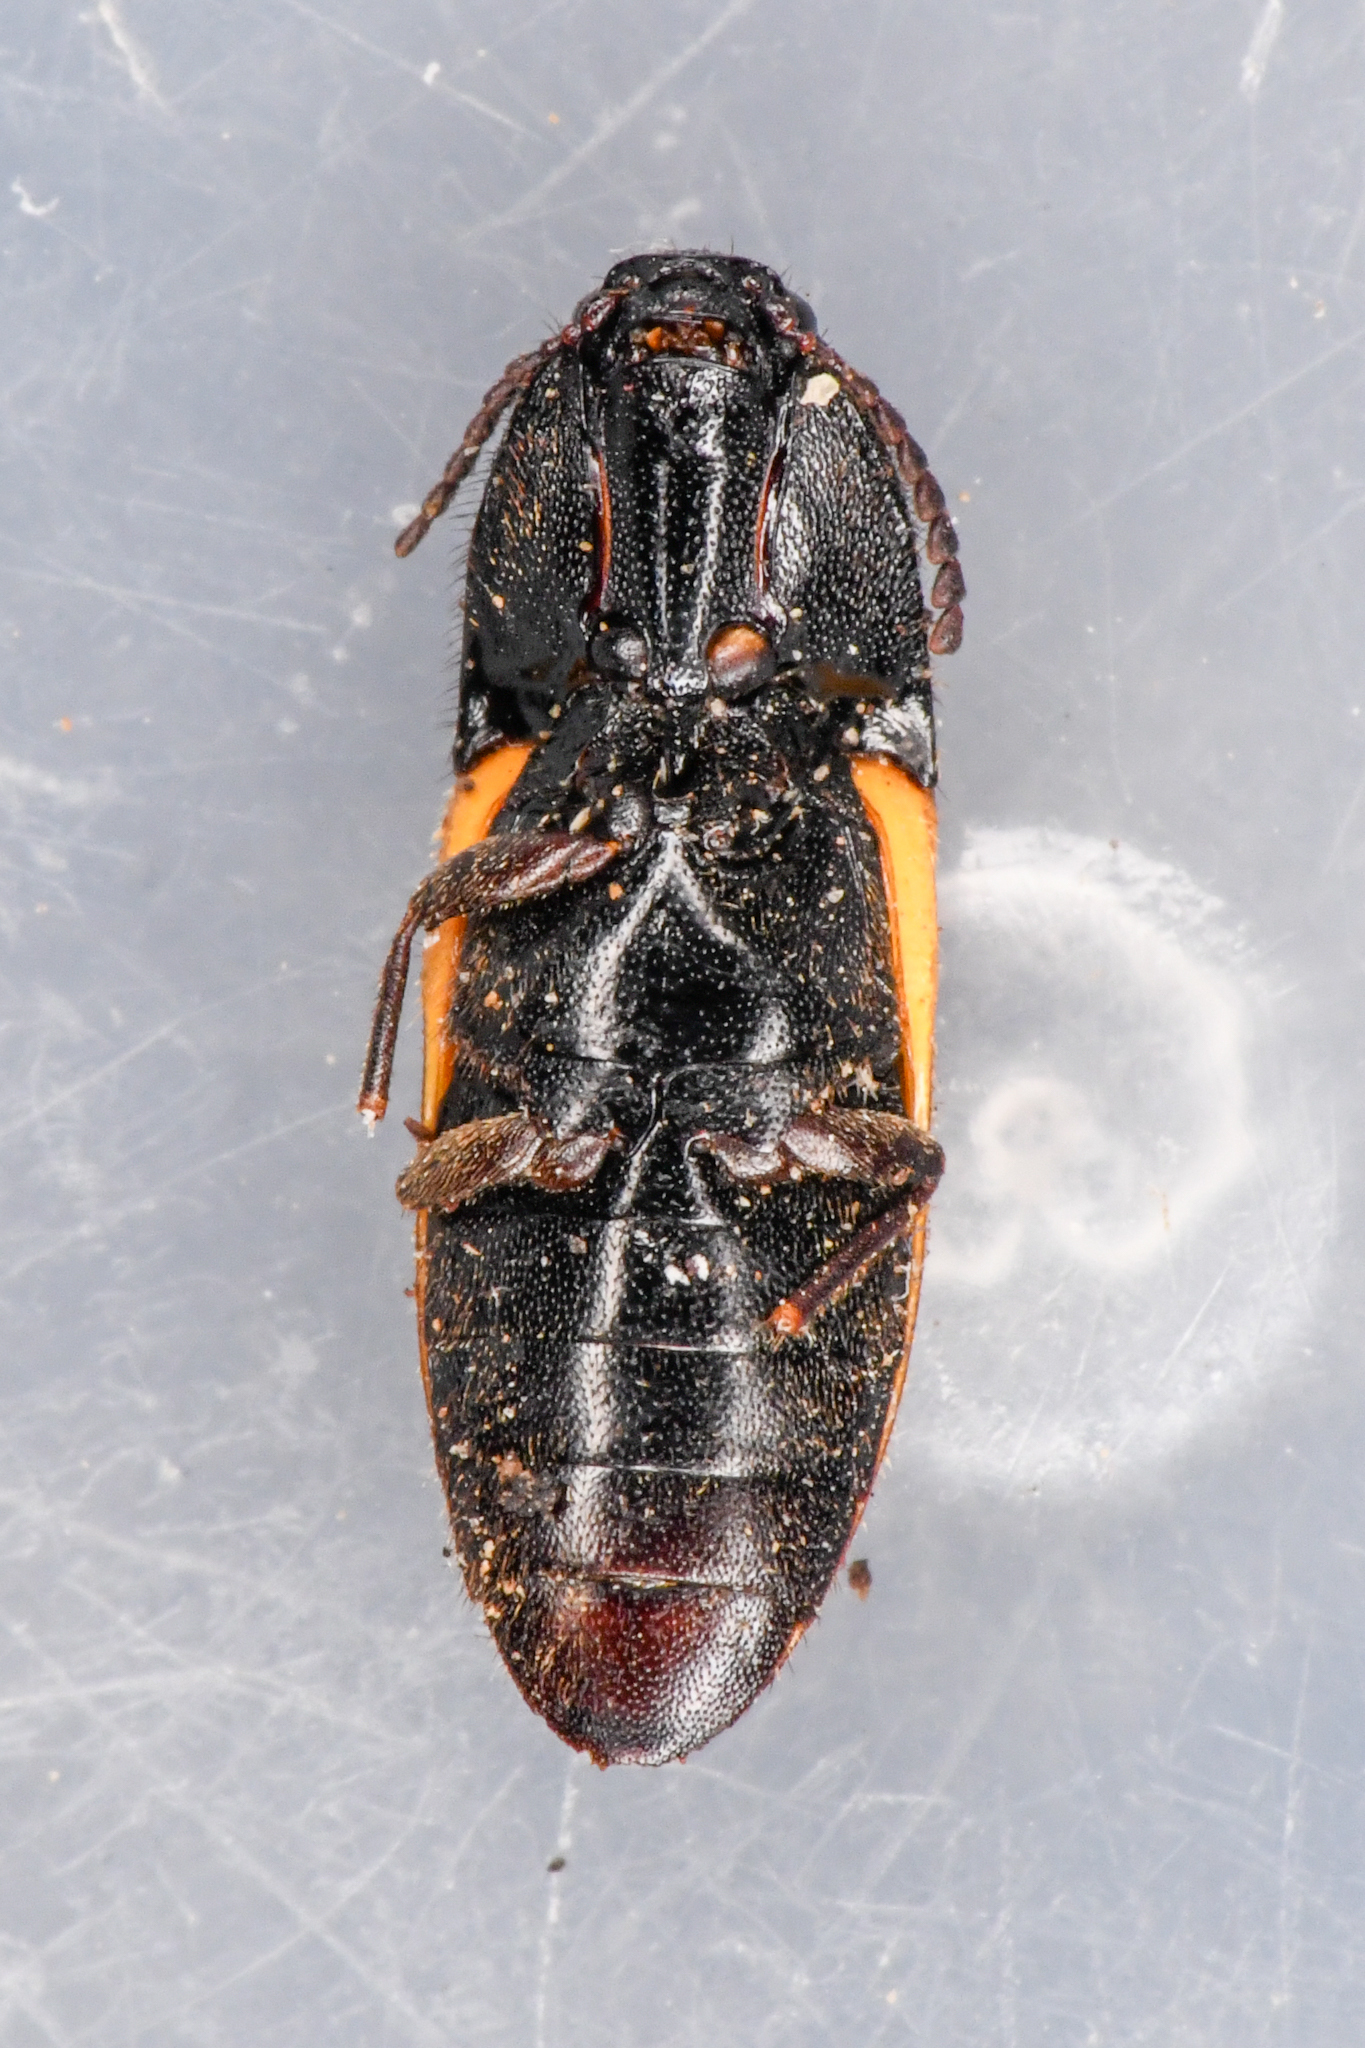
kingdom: Animalia
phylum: Arthropoda
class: Insecta
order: Coleoptera
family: Elateridae
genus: Ampedus
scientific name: Ampedus
